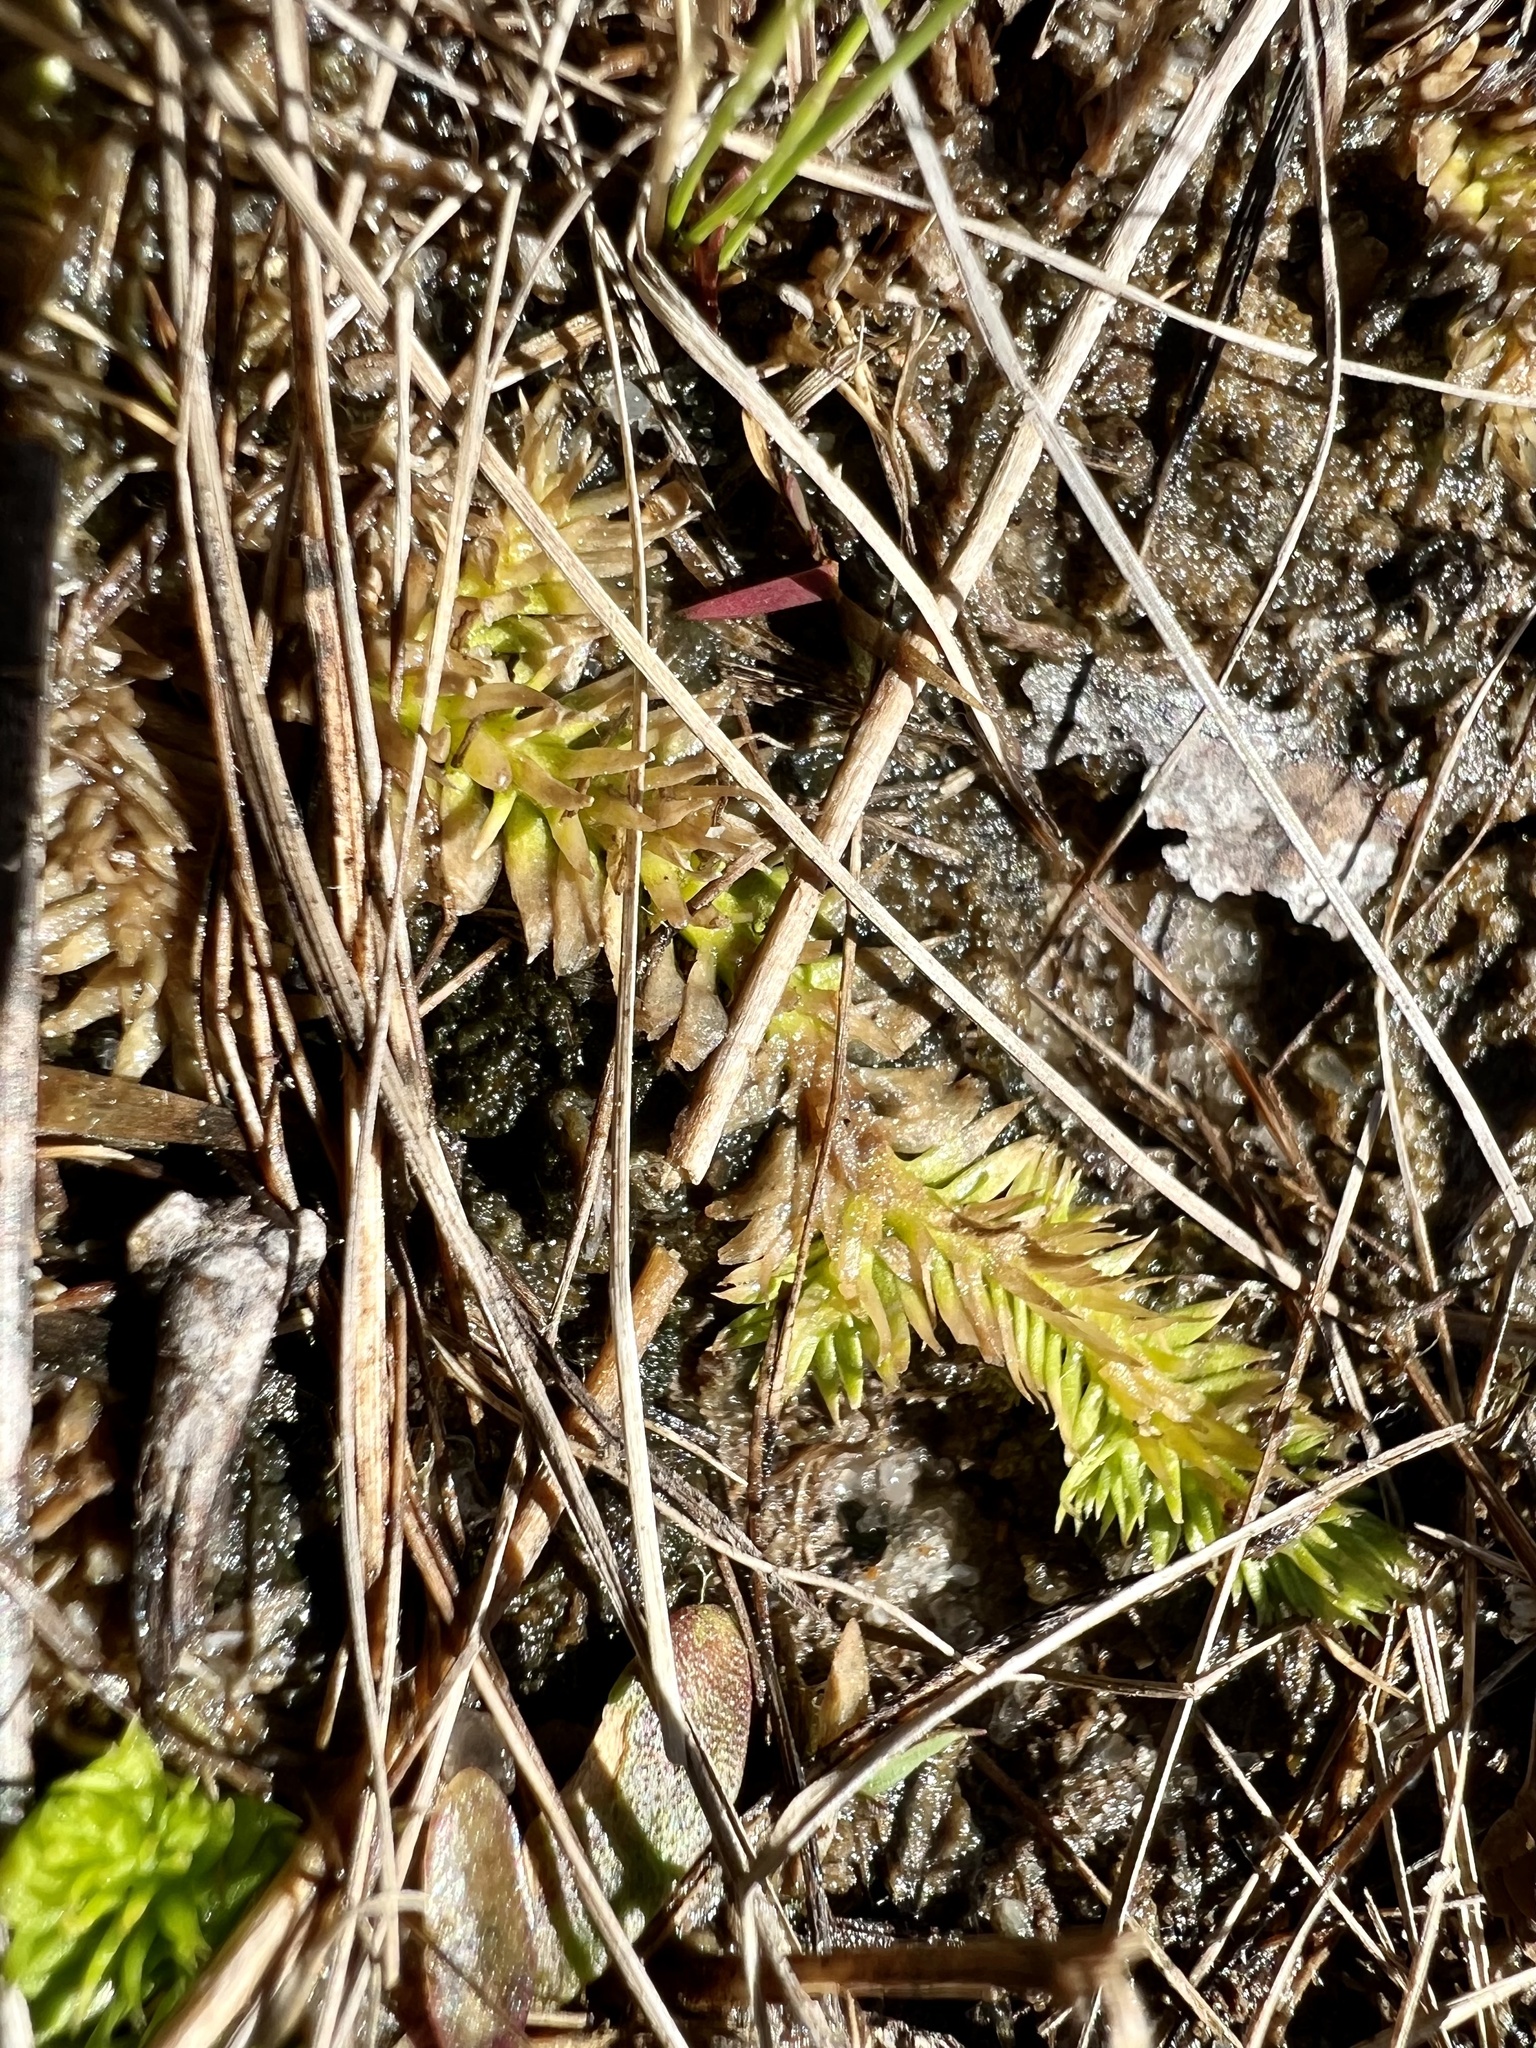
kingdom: Plantae
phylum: Tracheophyta
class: Lycopodiopsida
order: Lycopodiales
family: Lycopodiaceae
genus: Pseudolycopodiella
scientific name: Pseudolycopodiella caroliniana
